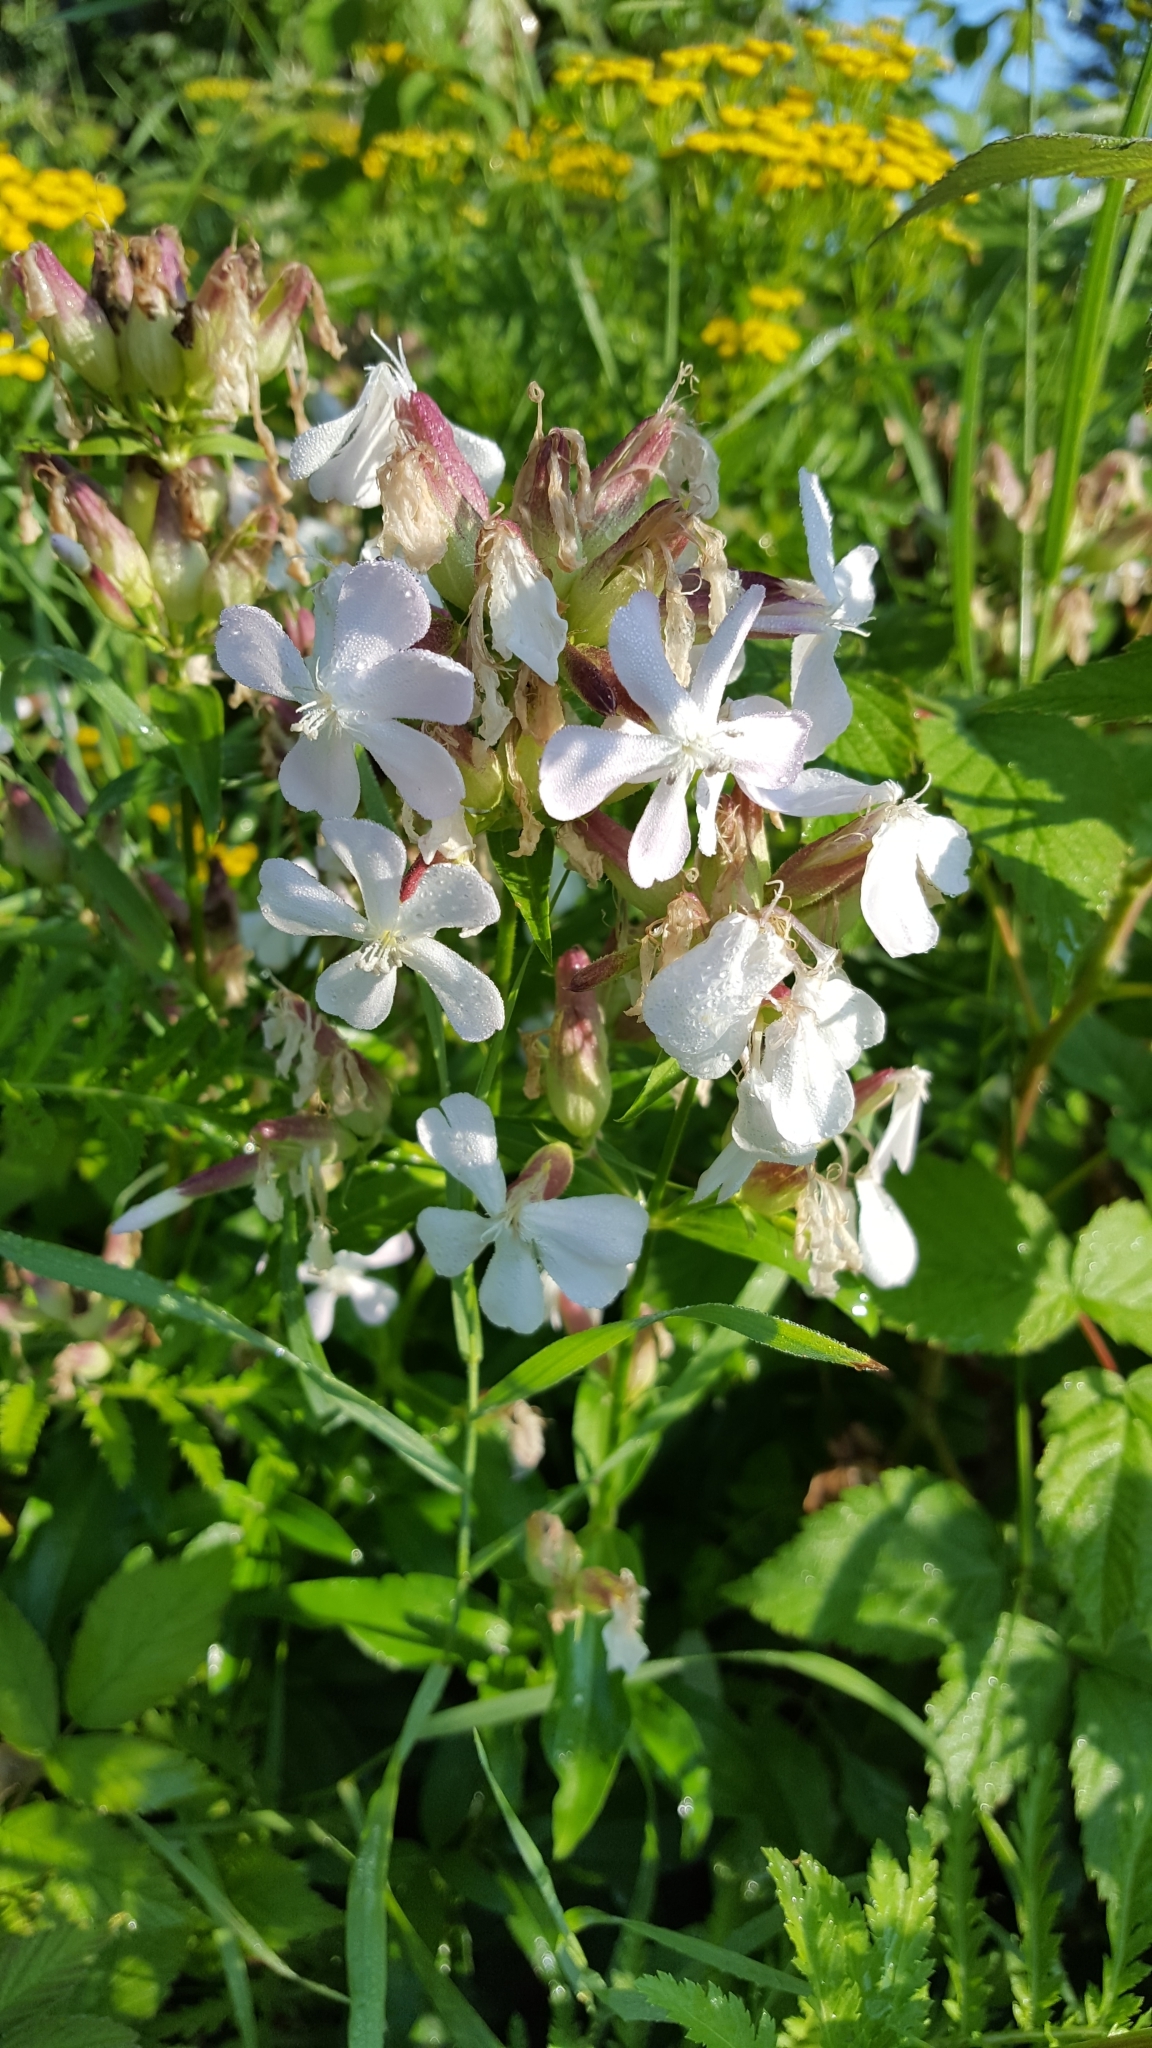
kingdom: Plantae
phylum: Tracheophyta
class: Magnoliopsida
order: Caryophyllales
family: Caryophyllaceae
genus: Saponaria
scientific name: Saponaria officinalis
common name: Soapwort
